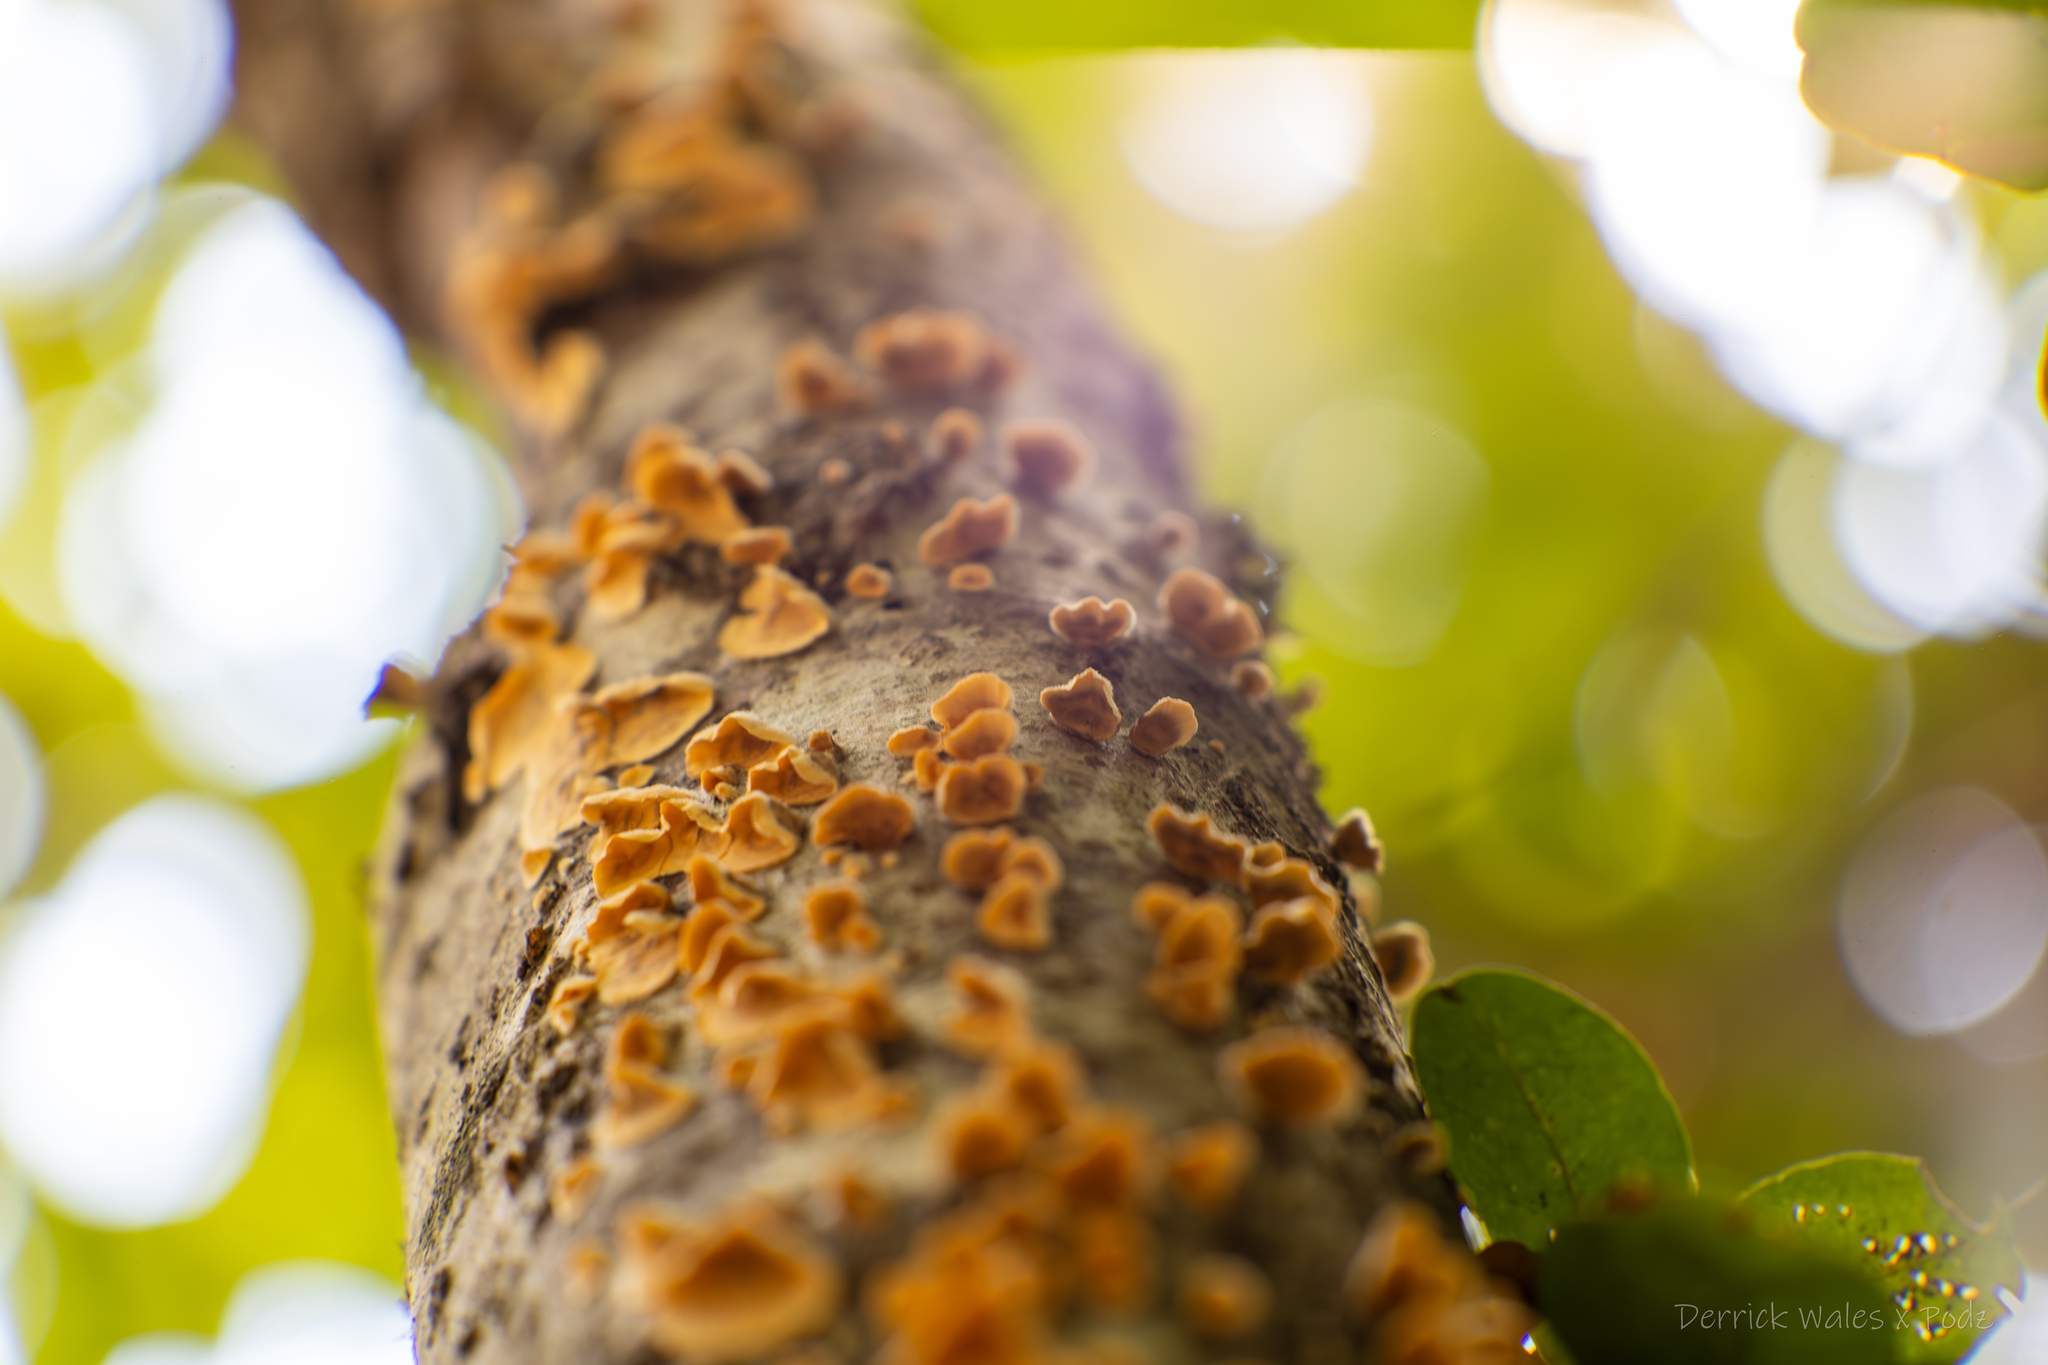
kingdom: Fungi
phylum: Basidiomycota
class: Agaricomycetes
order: Russulales
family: Stereaceae
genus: Stereum
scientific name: Stereum complicatum
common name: Crowded parchment
